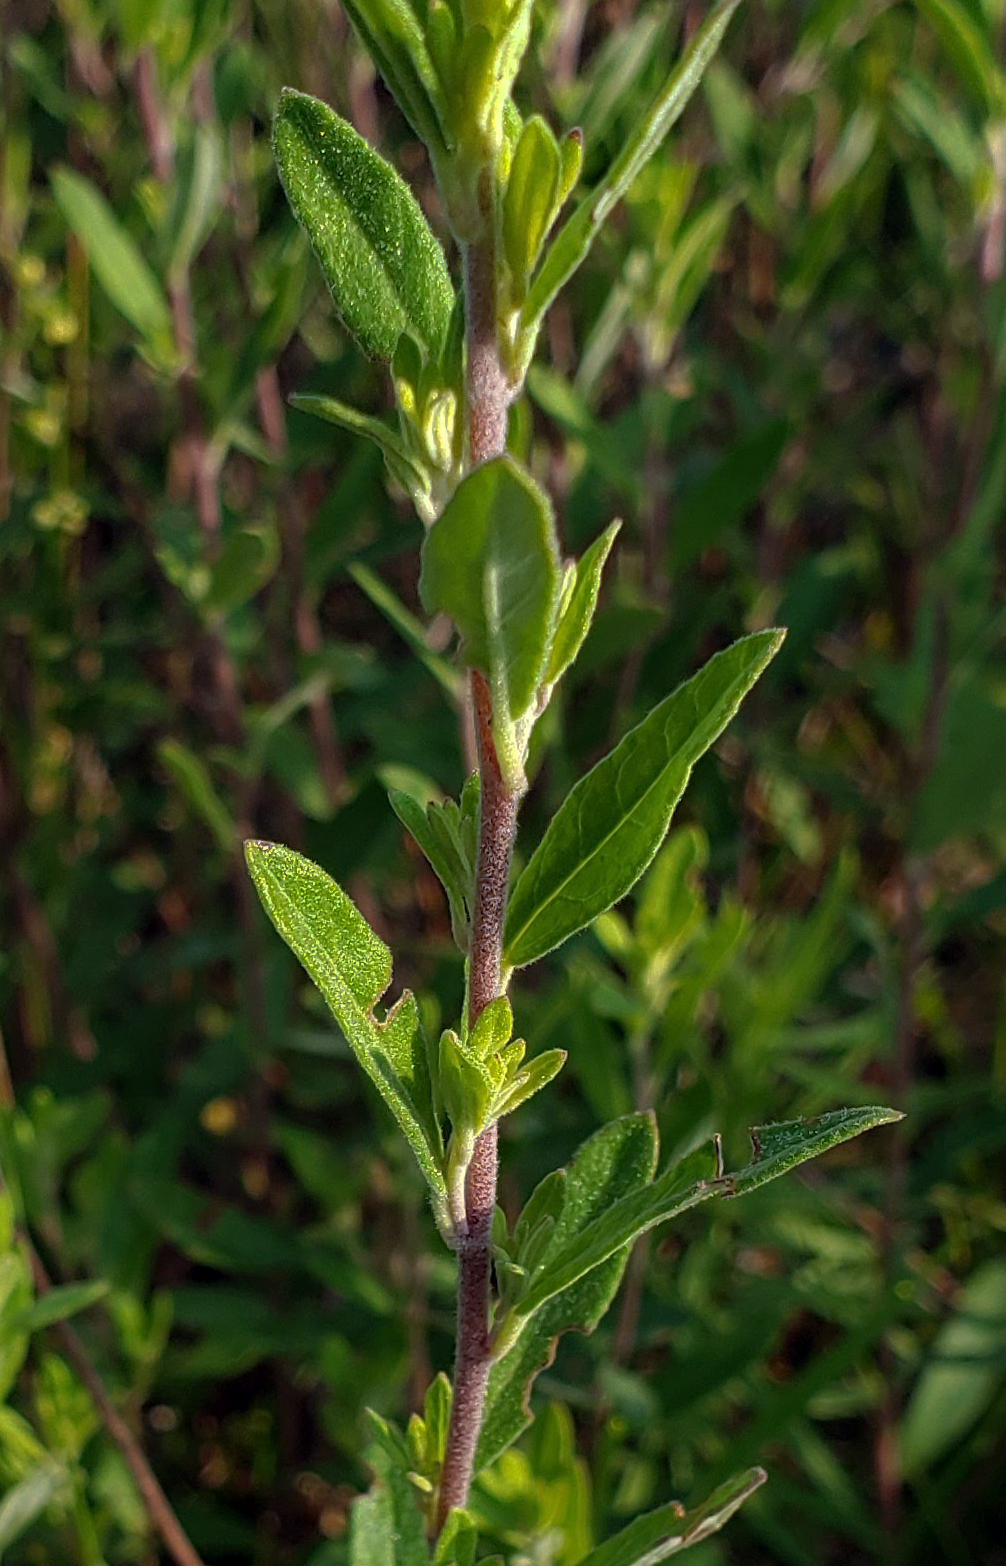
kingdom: Plantae
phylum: Tracheophyta
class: Magnoliopsida
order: Malvales
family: Cistaceae
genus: Crocanthemum
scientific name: Crocanthemum bicknellii
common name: Hoary frostweed
